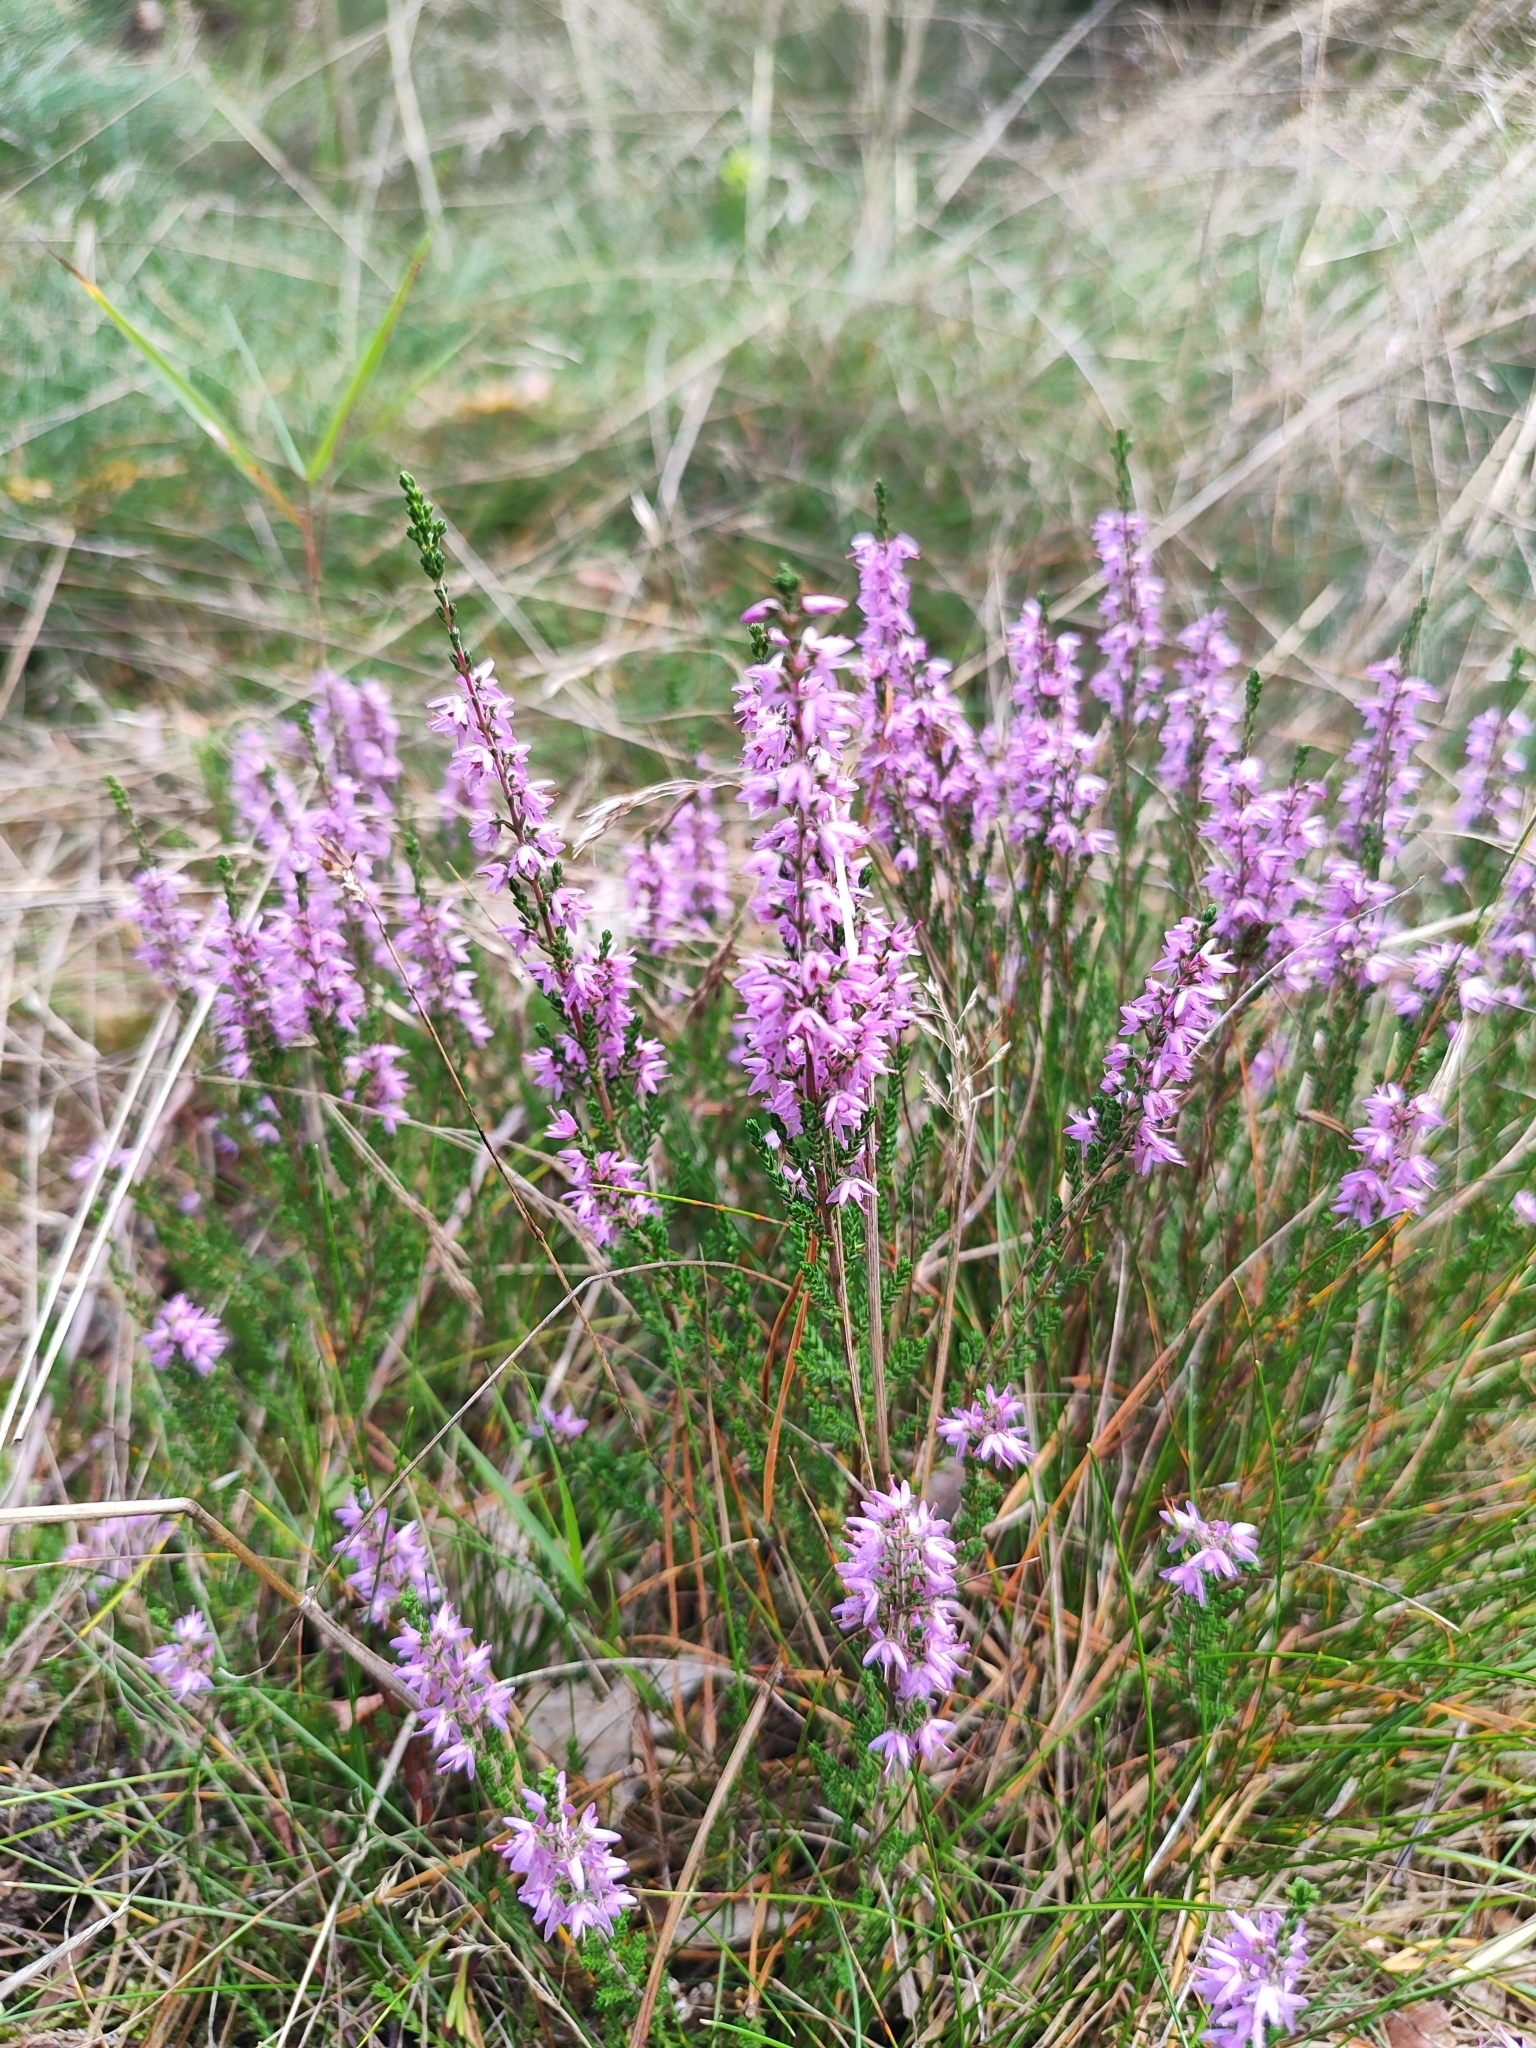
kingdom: Plantae
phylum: Tracheophyta
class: Magnoliopsida
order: Ericales
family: Ericaceae
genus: Calluna
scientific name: Calluna vulgaris
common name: Heather
